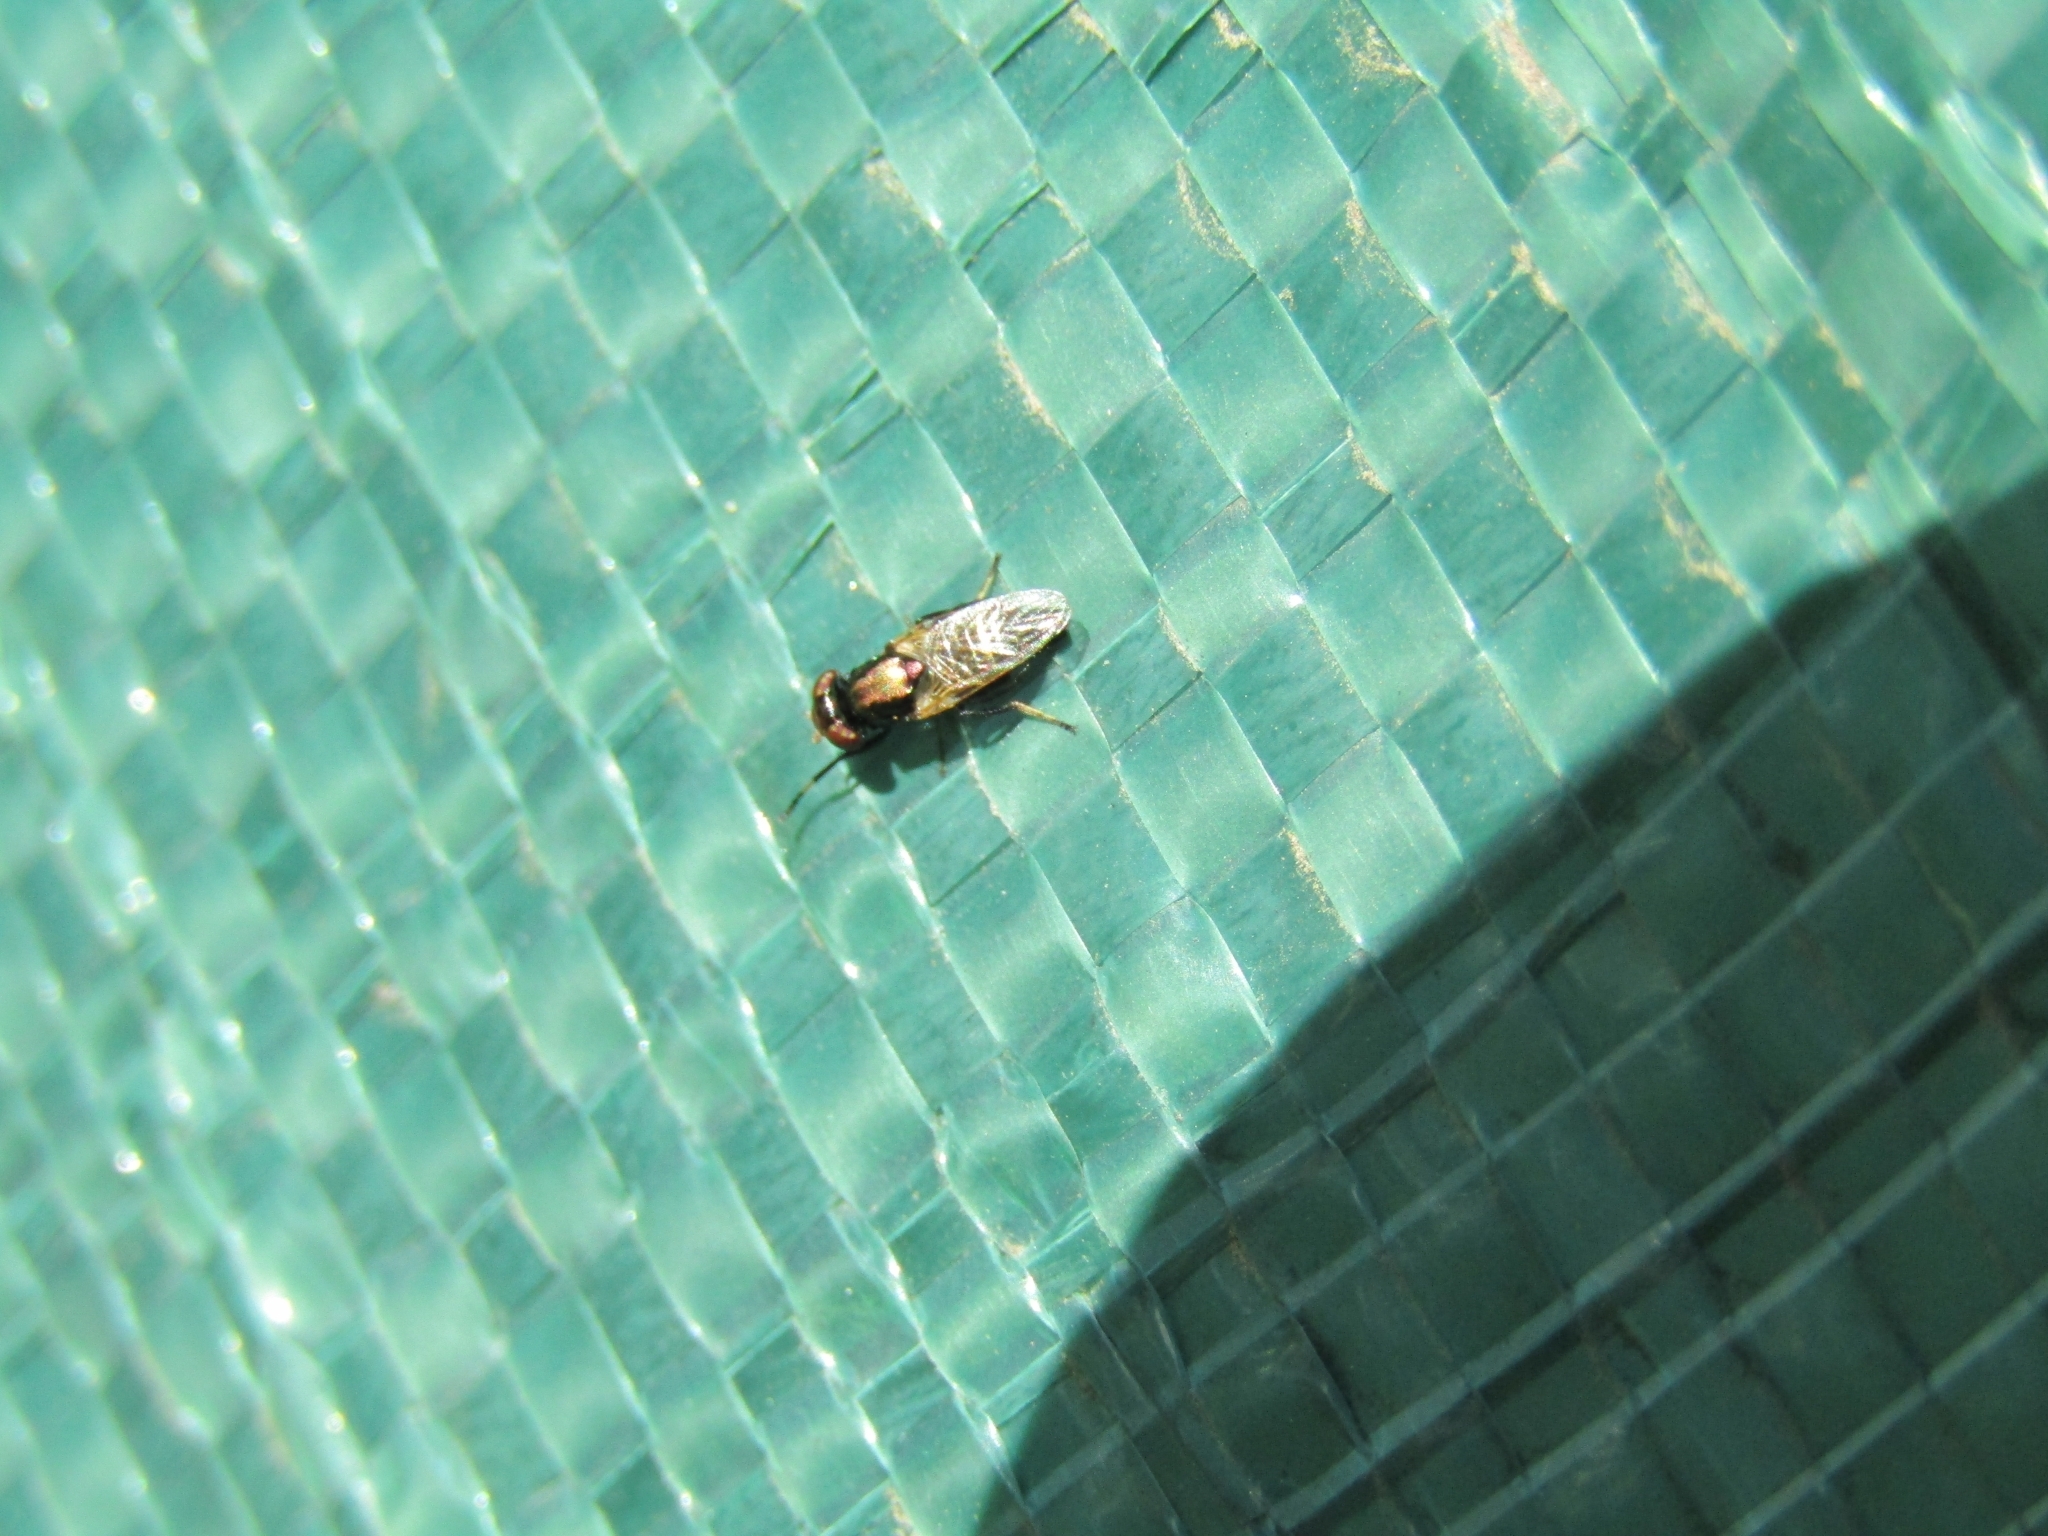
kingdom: Animalia
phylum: Arthropoda
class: Insecta
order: Diptera
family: Ulidiidae
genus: Physiphora
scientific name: Physiphora alceae
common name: Picture-winged fly
